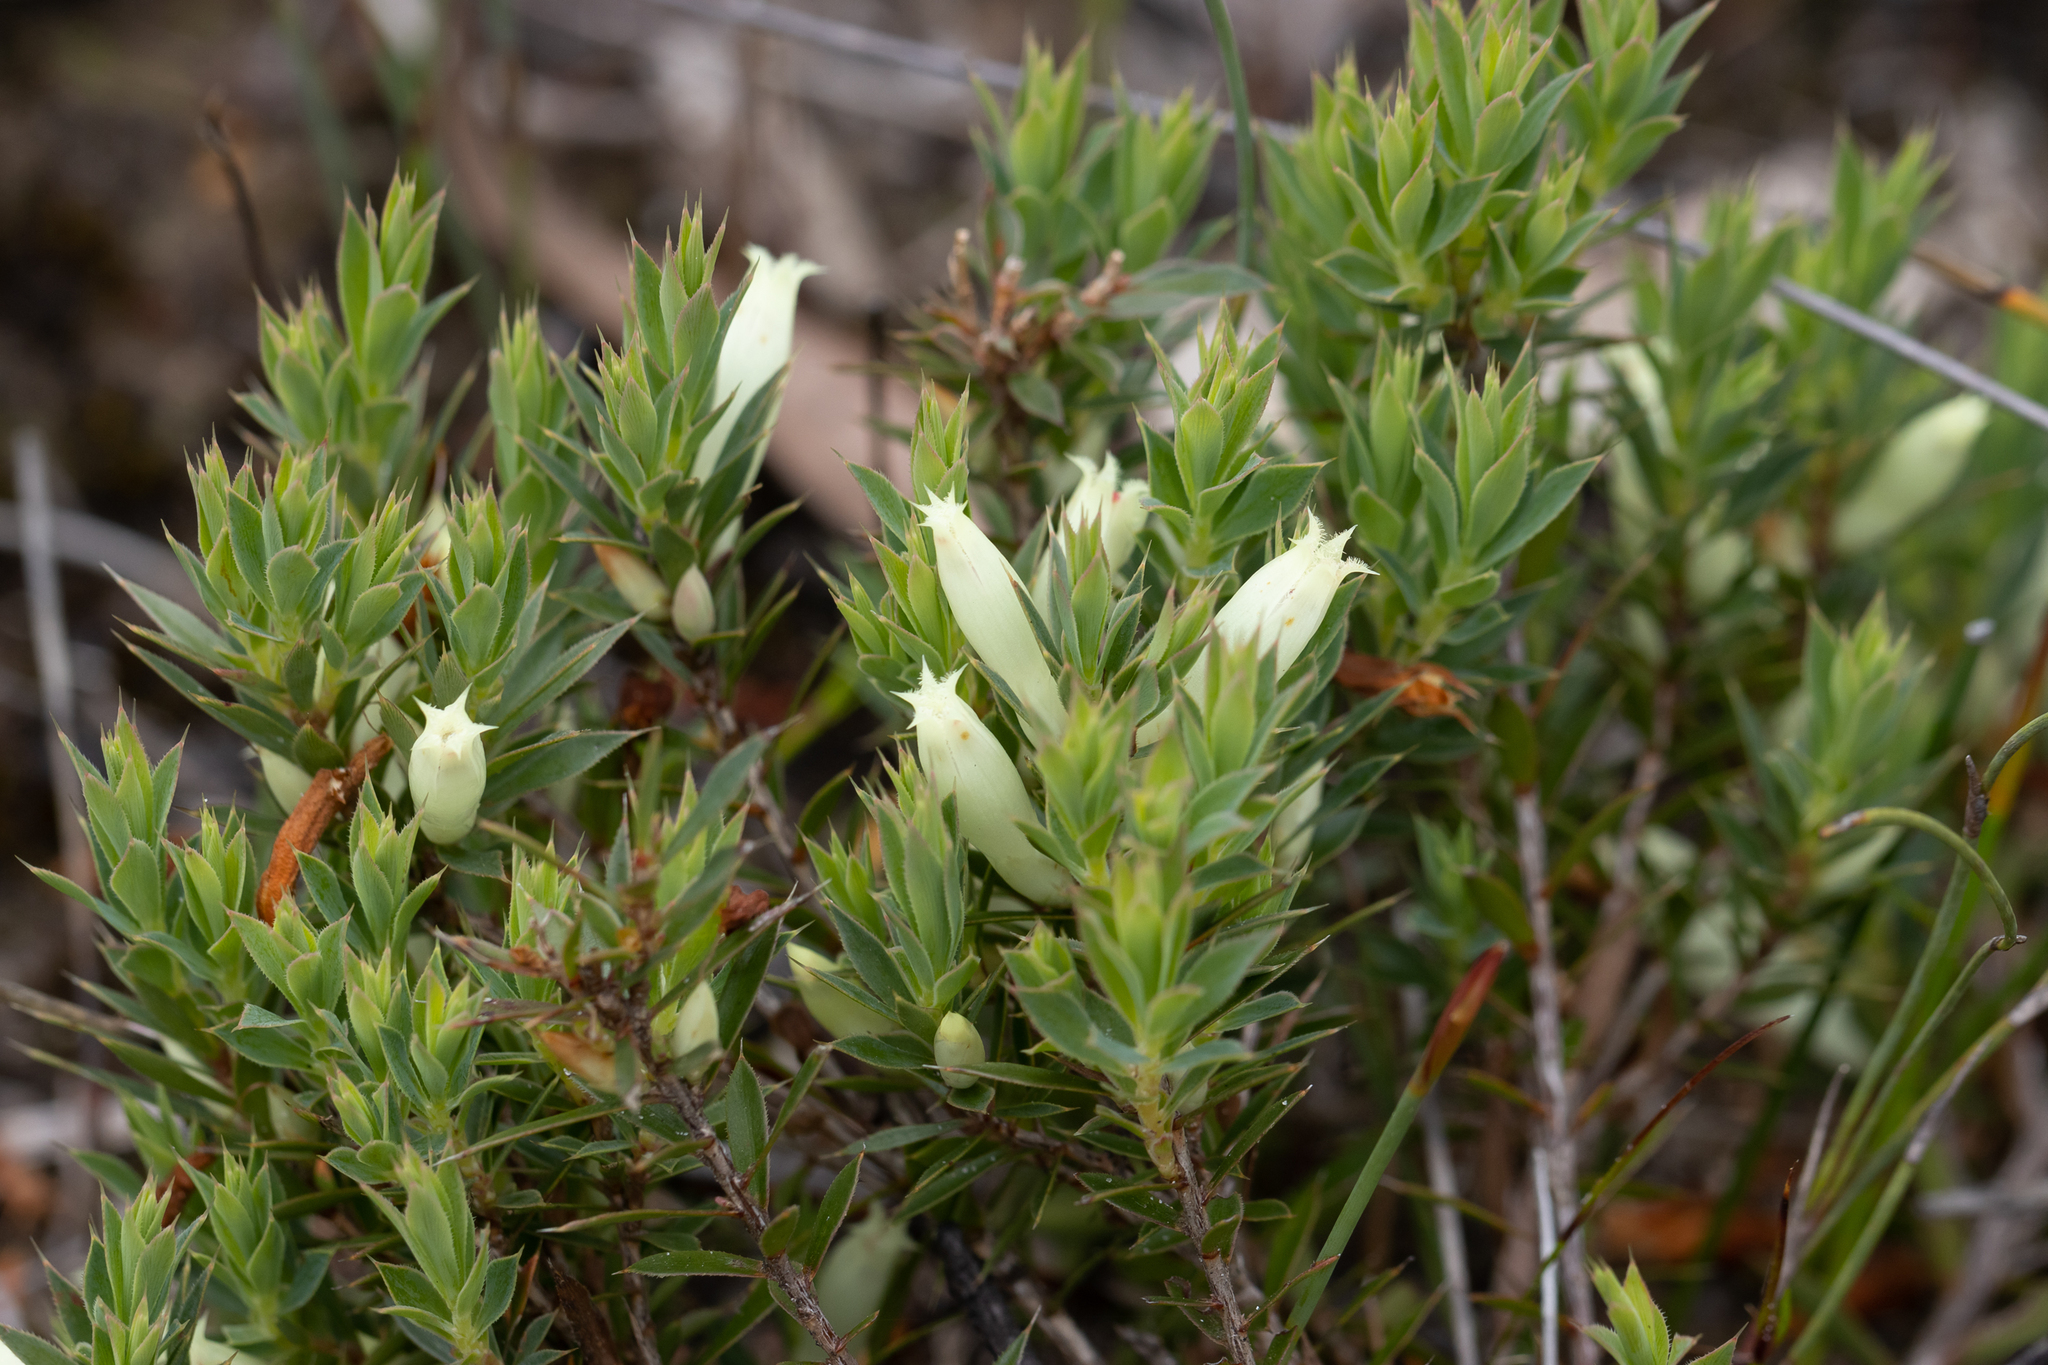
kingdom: Plantae
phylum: Tracheophyta
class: Magnoliopsida
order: Ericales
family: Ericaceae
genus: Styphelia
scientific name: Styphelia pallida
